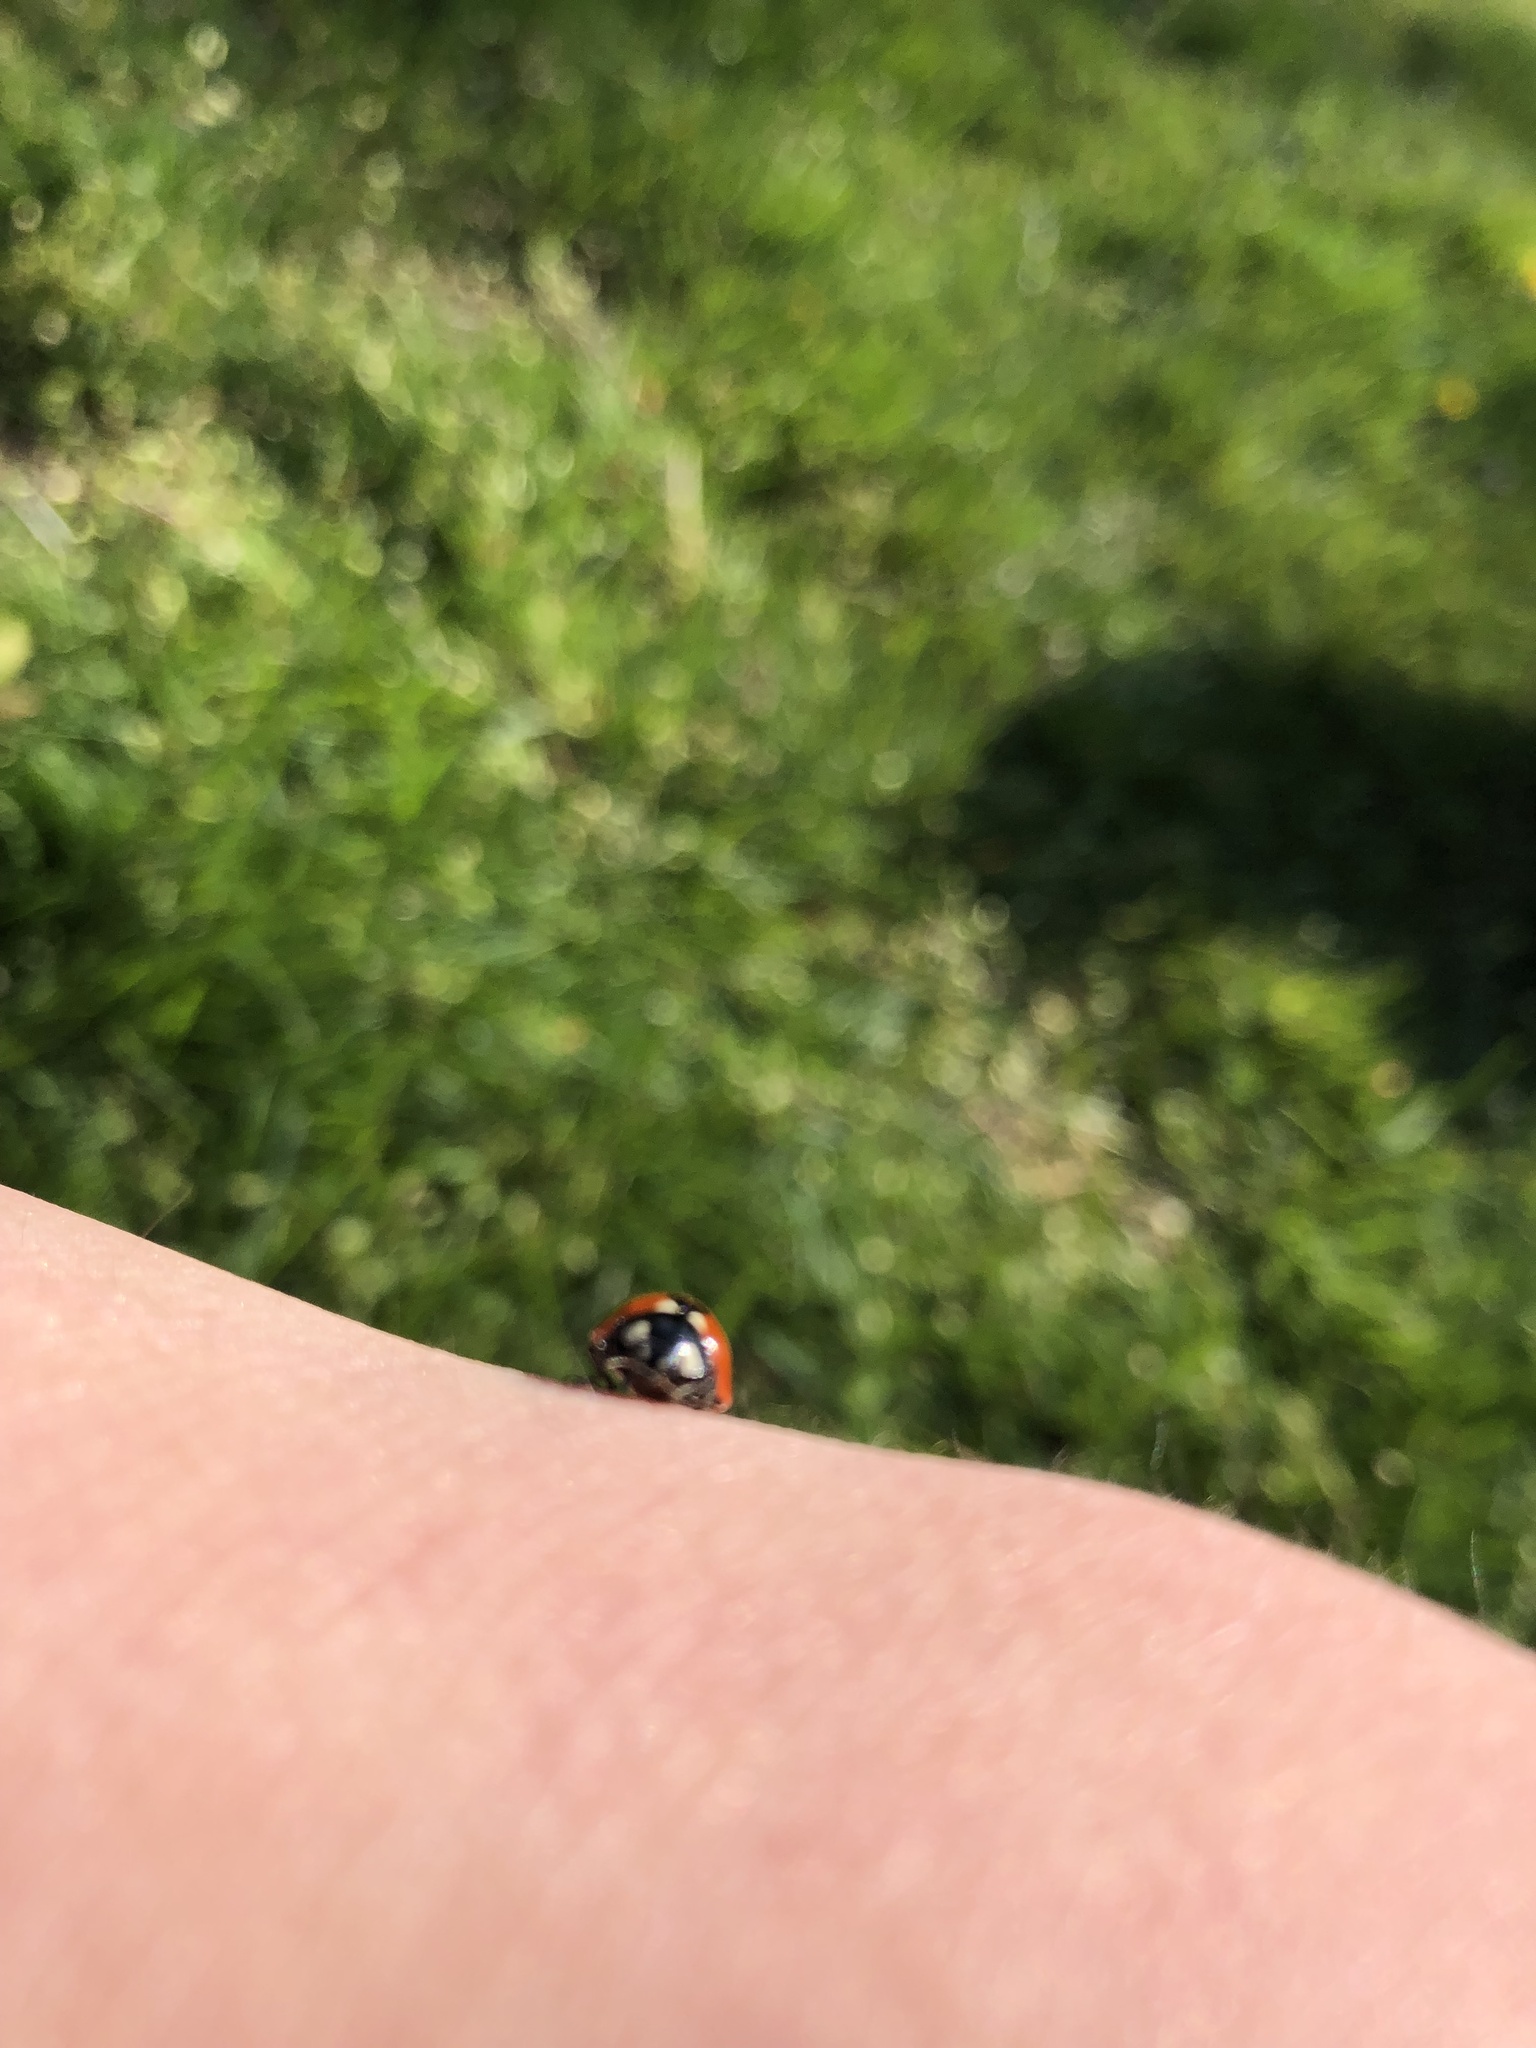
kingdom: Animalia
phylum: Arthropoda
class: Insecta
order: Coleoptera
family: Coccinellidae
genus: Coccinella
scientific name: Coccinella septempunctata
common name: Sevenspotted lady beetle
